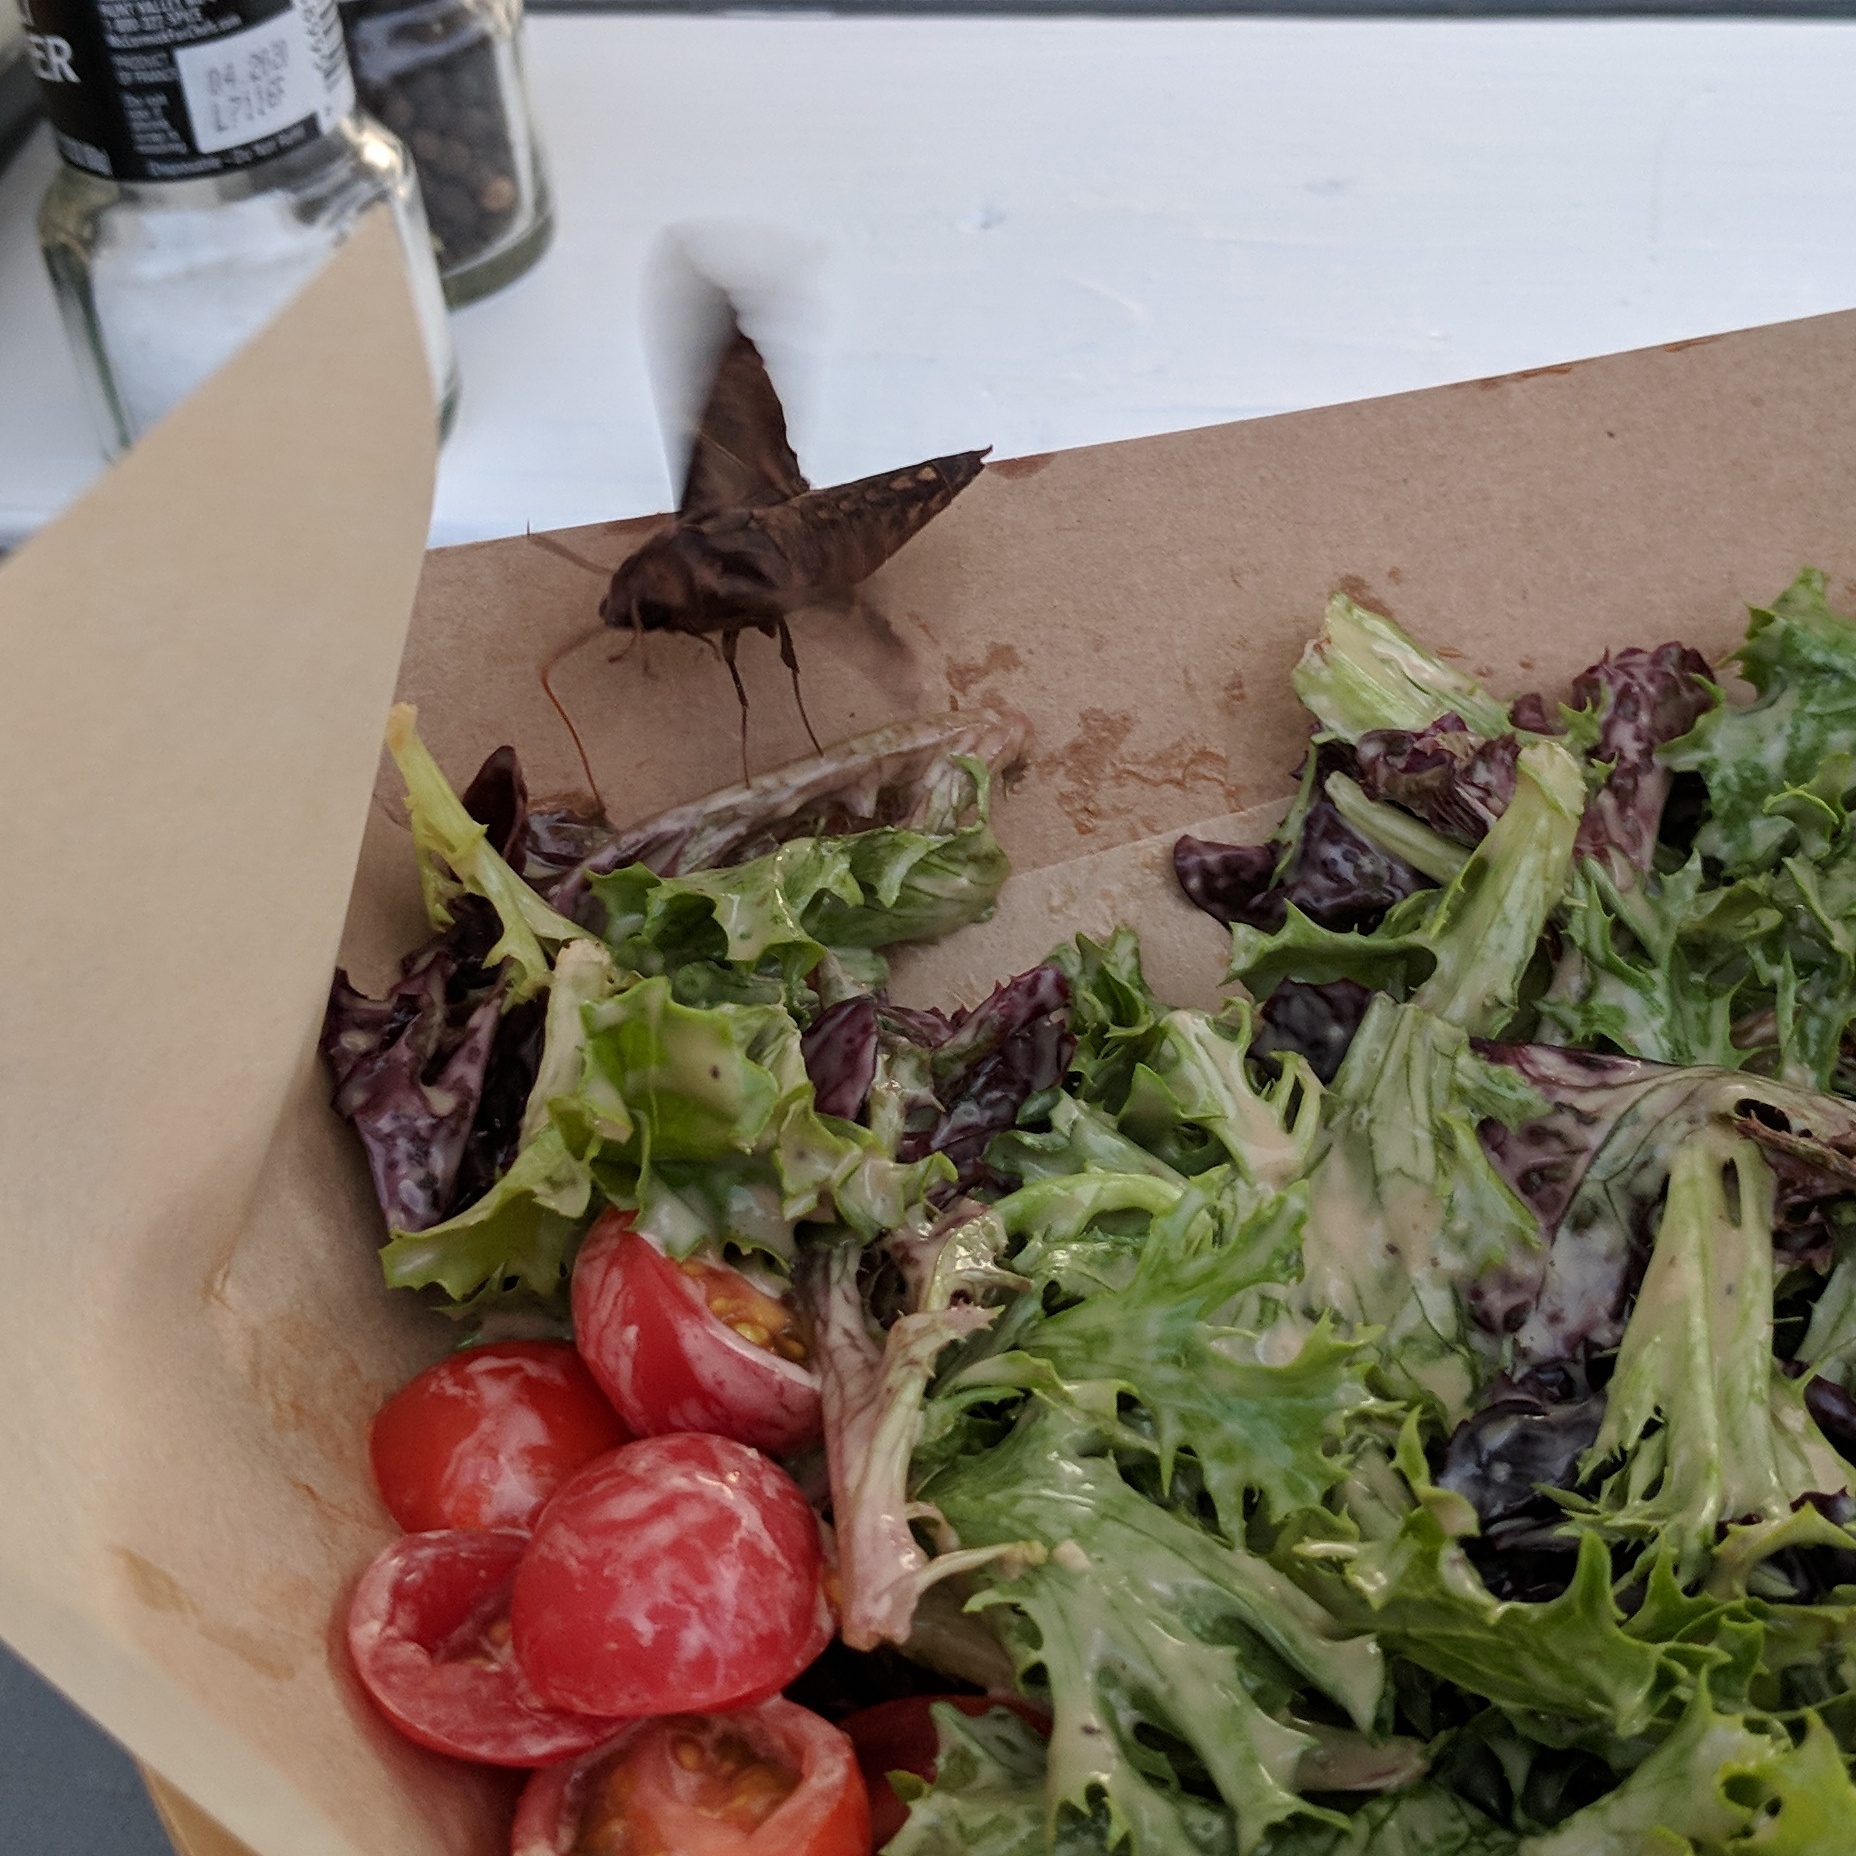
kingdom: Animalia
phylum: Arthropoda
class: Insecta
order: Lepidoptera
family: Sphingidae
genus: Enyo
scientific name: Enyo lugubris
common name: Mournful sphinx
